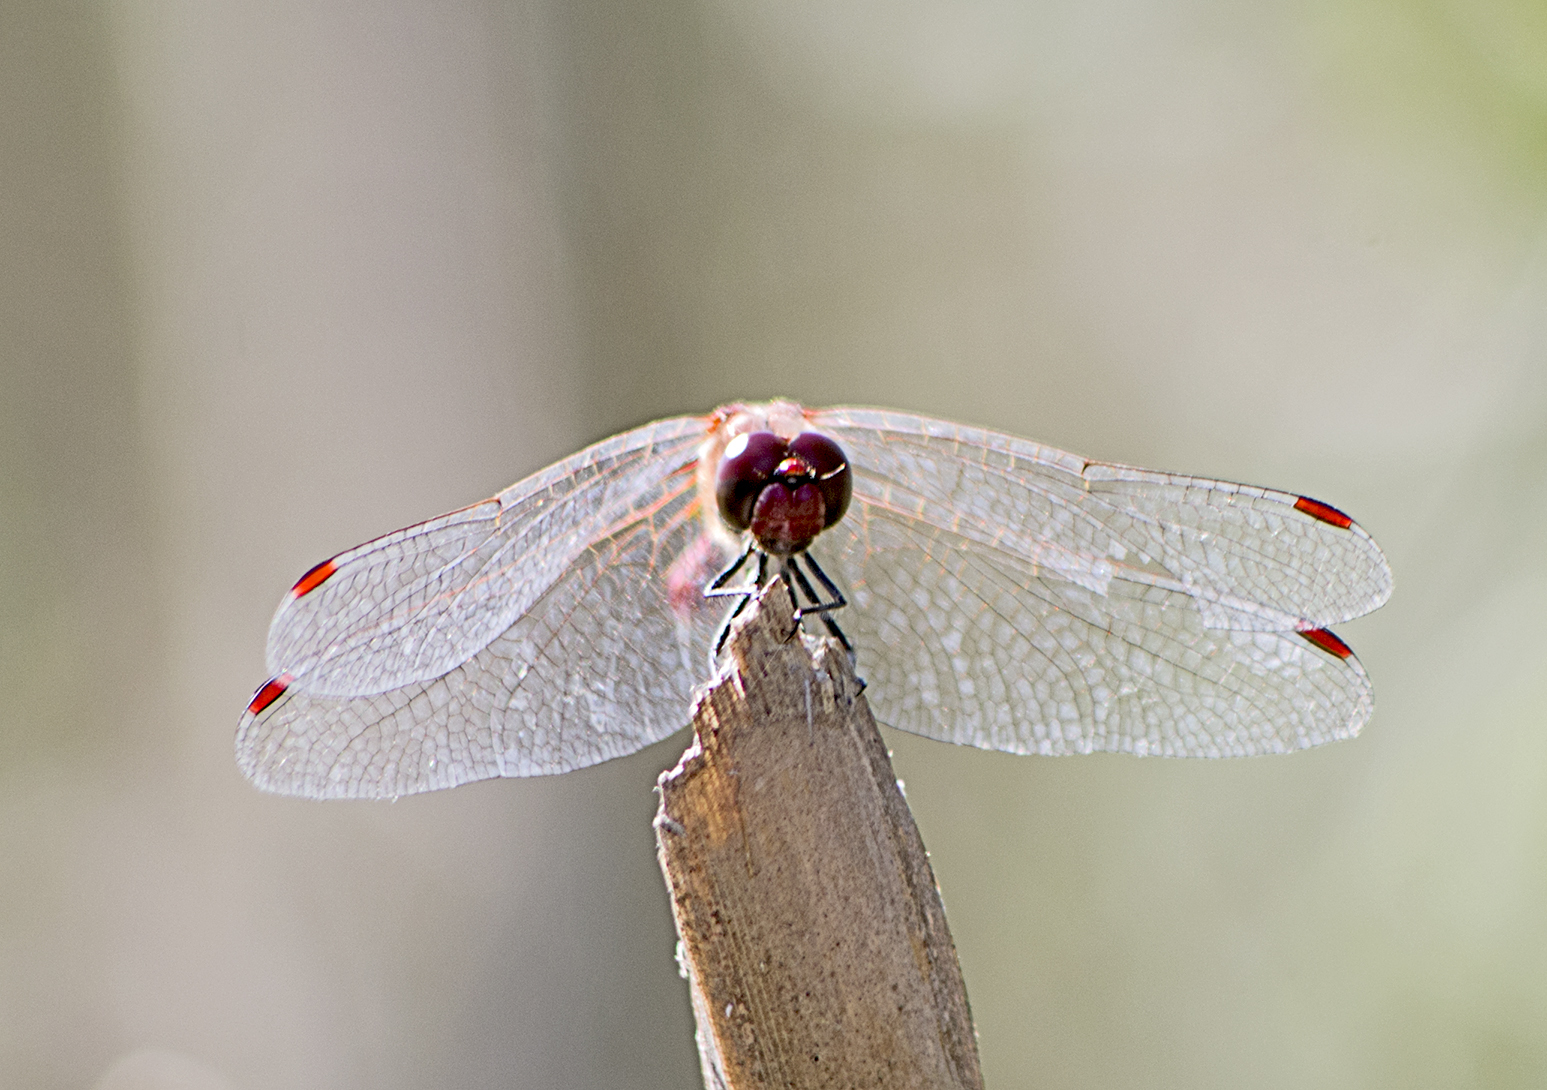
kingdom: Animalia
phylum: Arthropoda
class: Insecta
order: Odonata
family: Libellulidae
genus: Sympetrum
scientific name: Sympetrum sanguineum
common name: Ruddy darter
